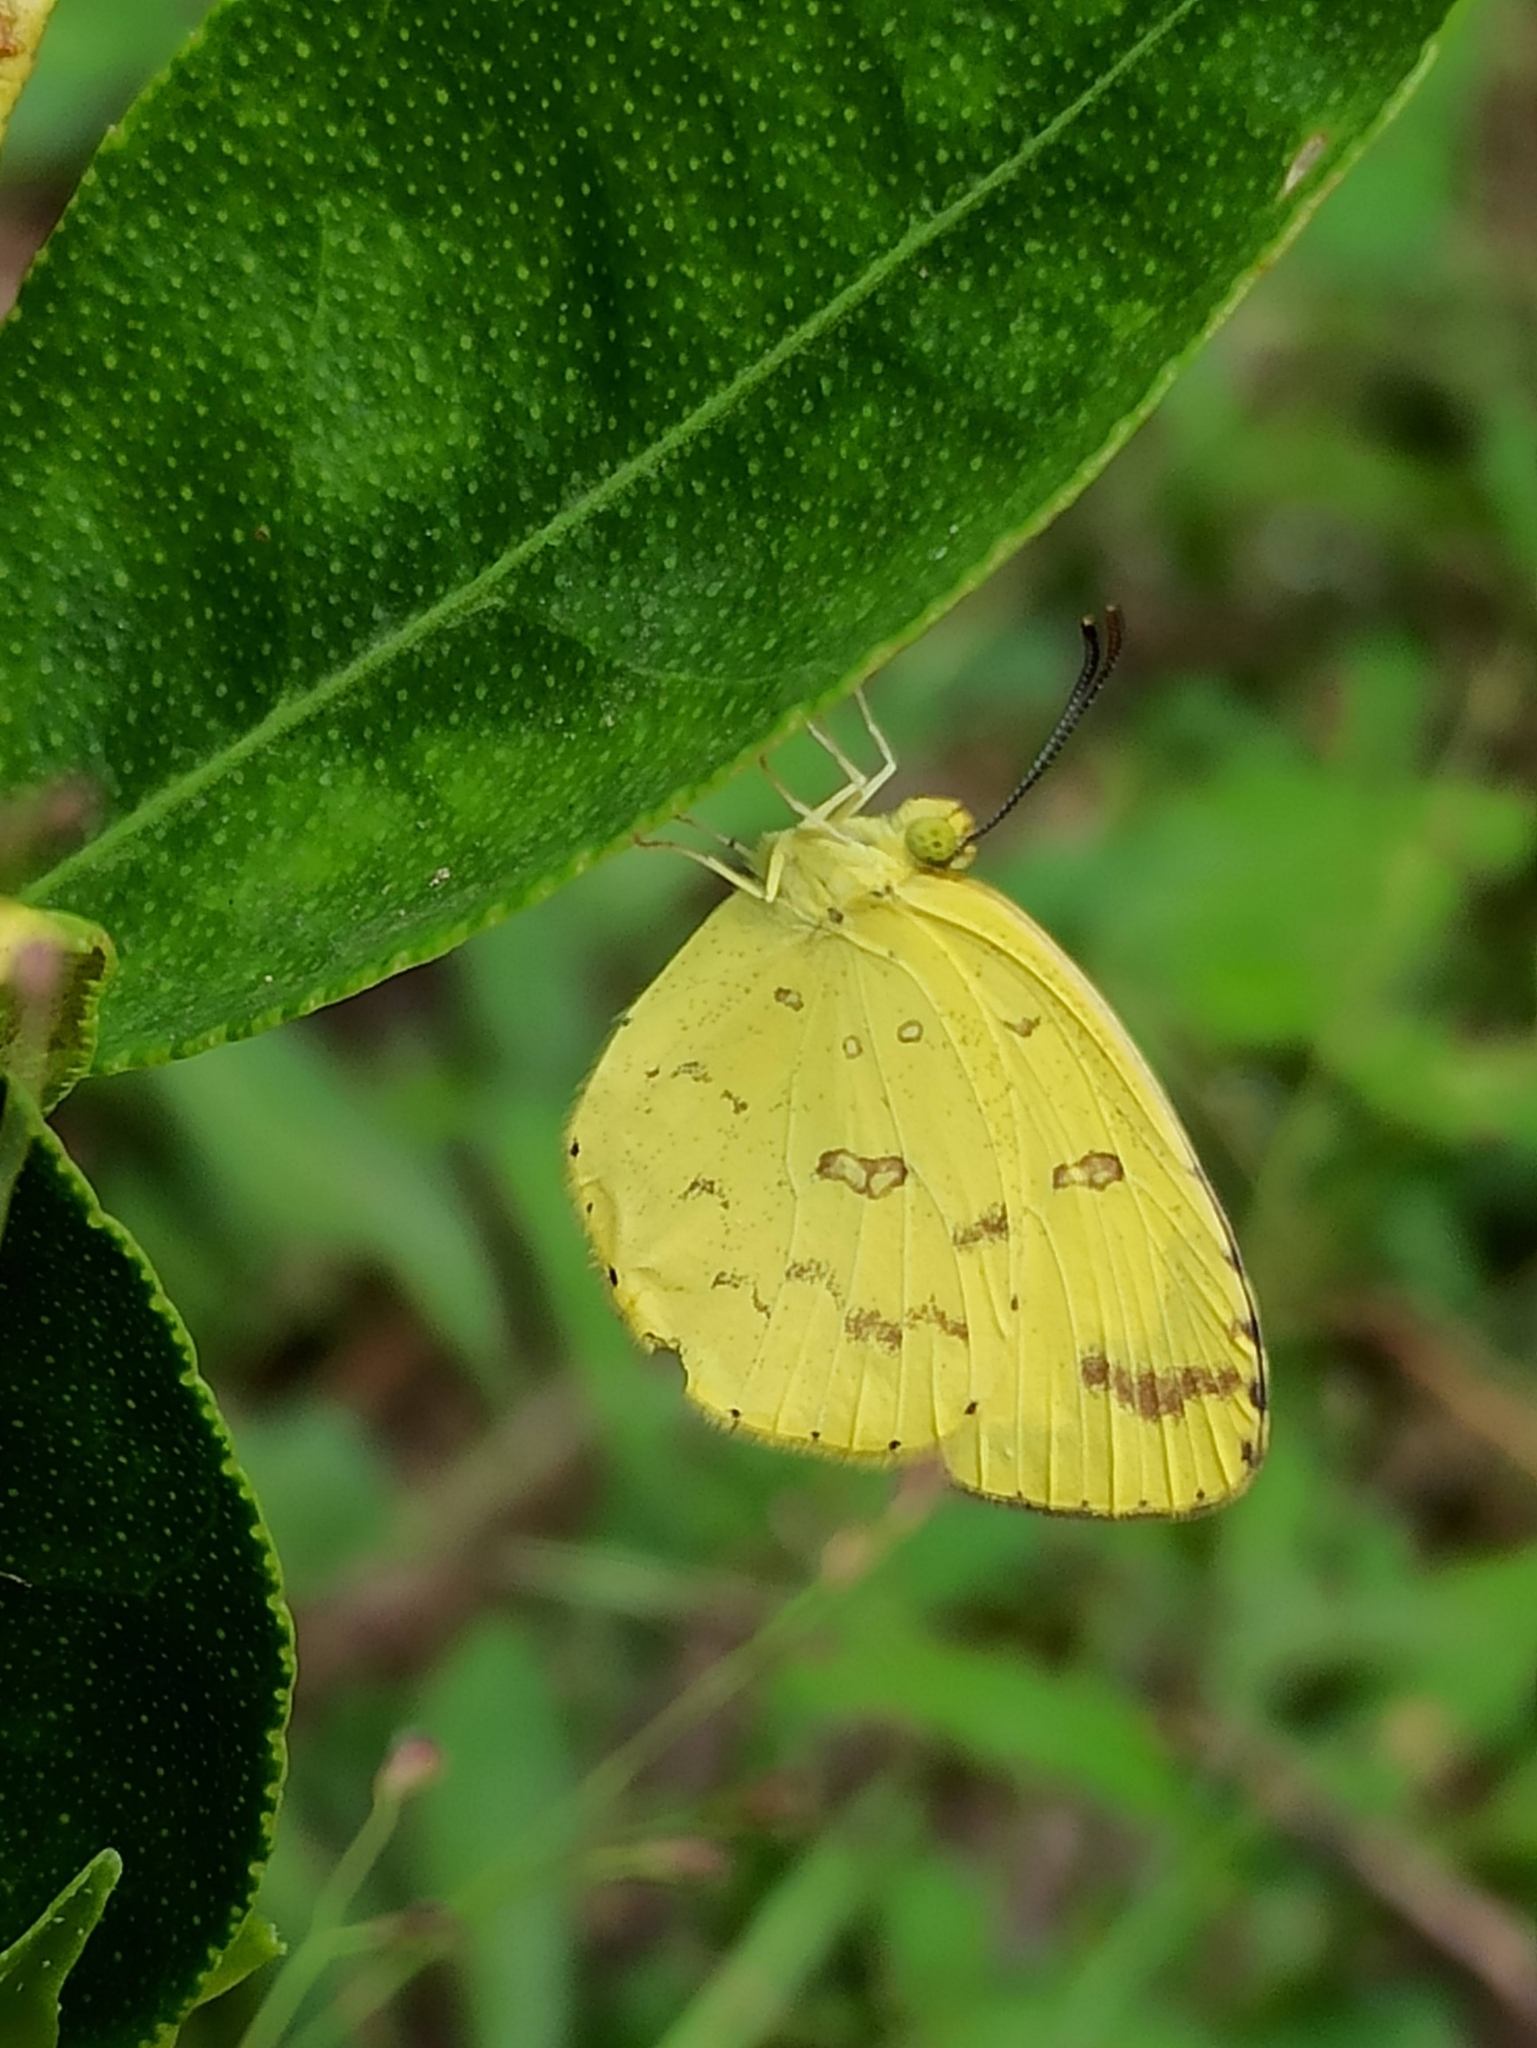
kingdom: Animalia
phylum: Arthropoda
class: Insecta
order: Lepidoptera
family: Pieridae
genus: Eurema
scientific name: Eurema hecabe
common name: Pale grass yellow
